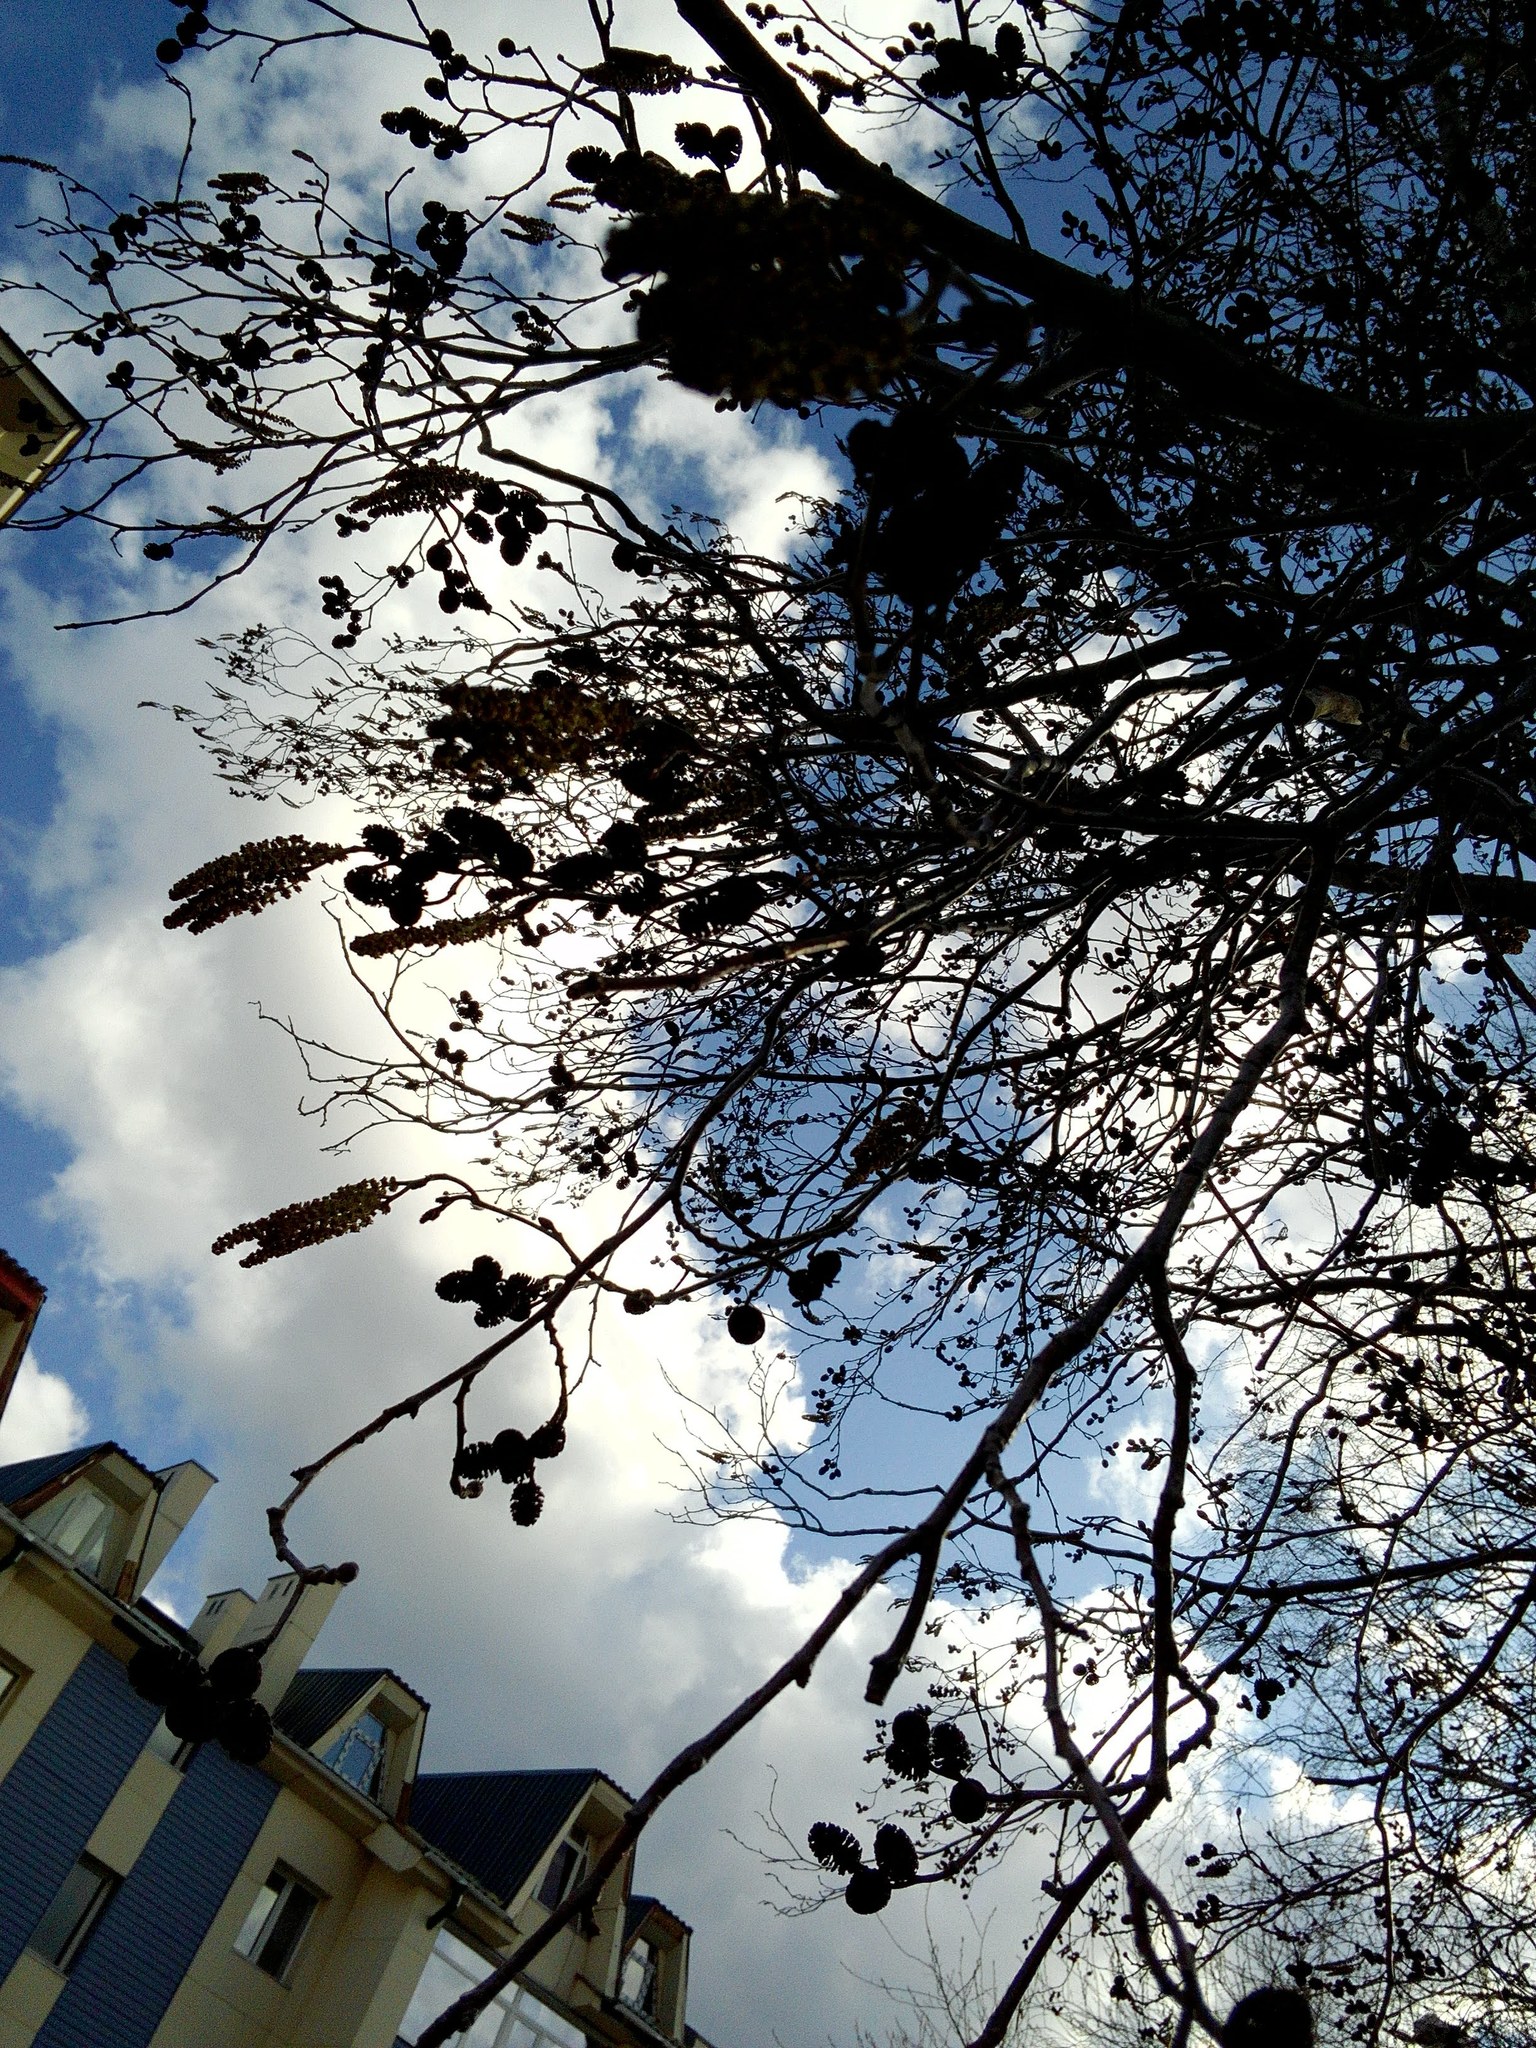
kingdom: Plantae
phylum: Tracheophyta
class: Magnoliopsida
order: Fagales
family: Betulaceae
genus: Alnus
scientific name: Alnus incana
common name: Grey alder
